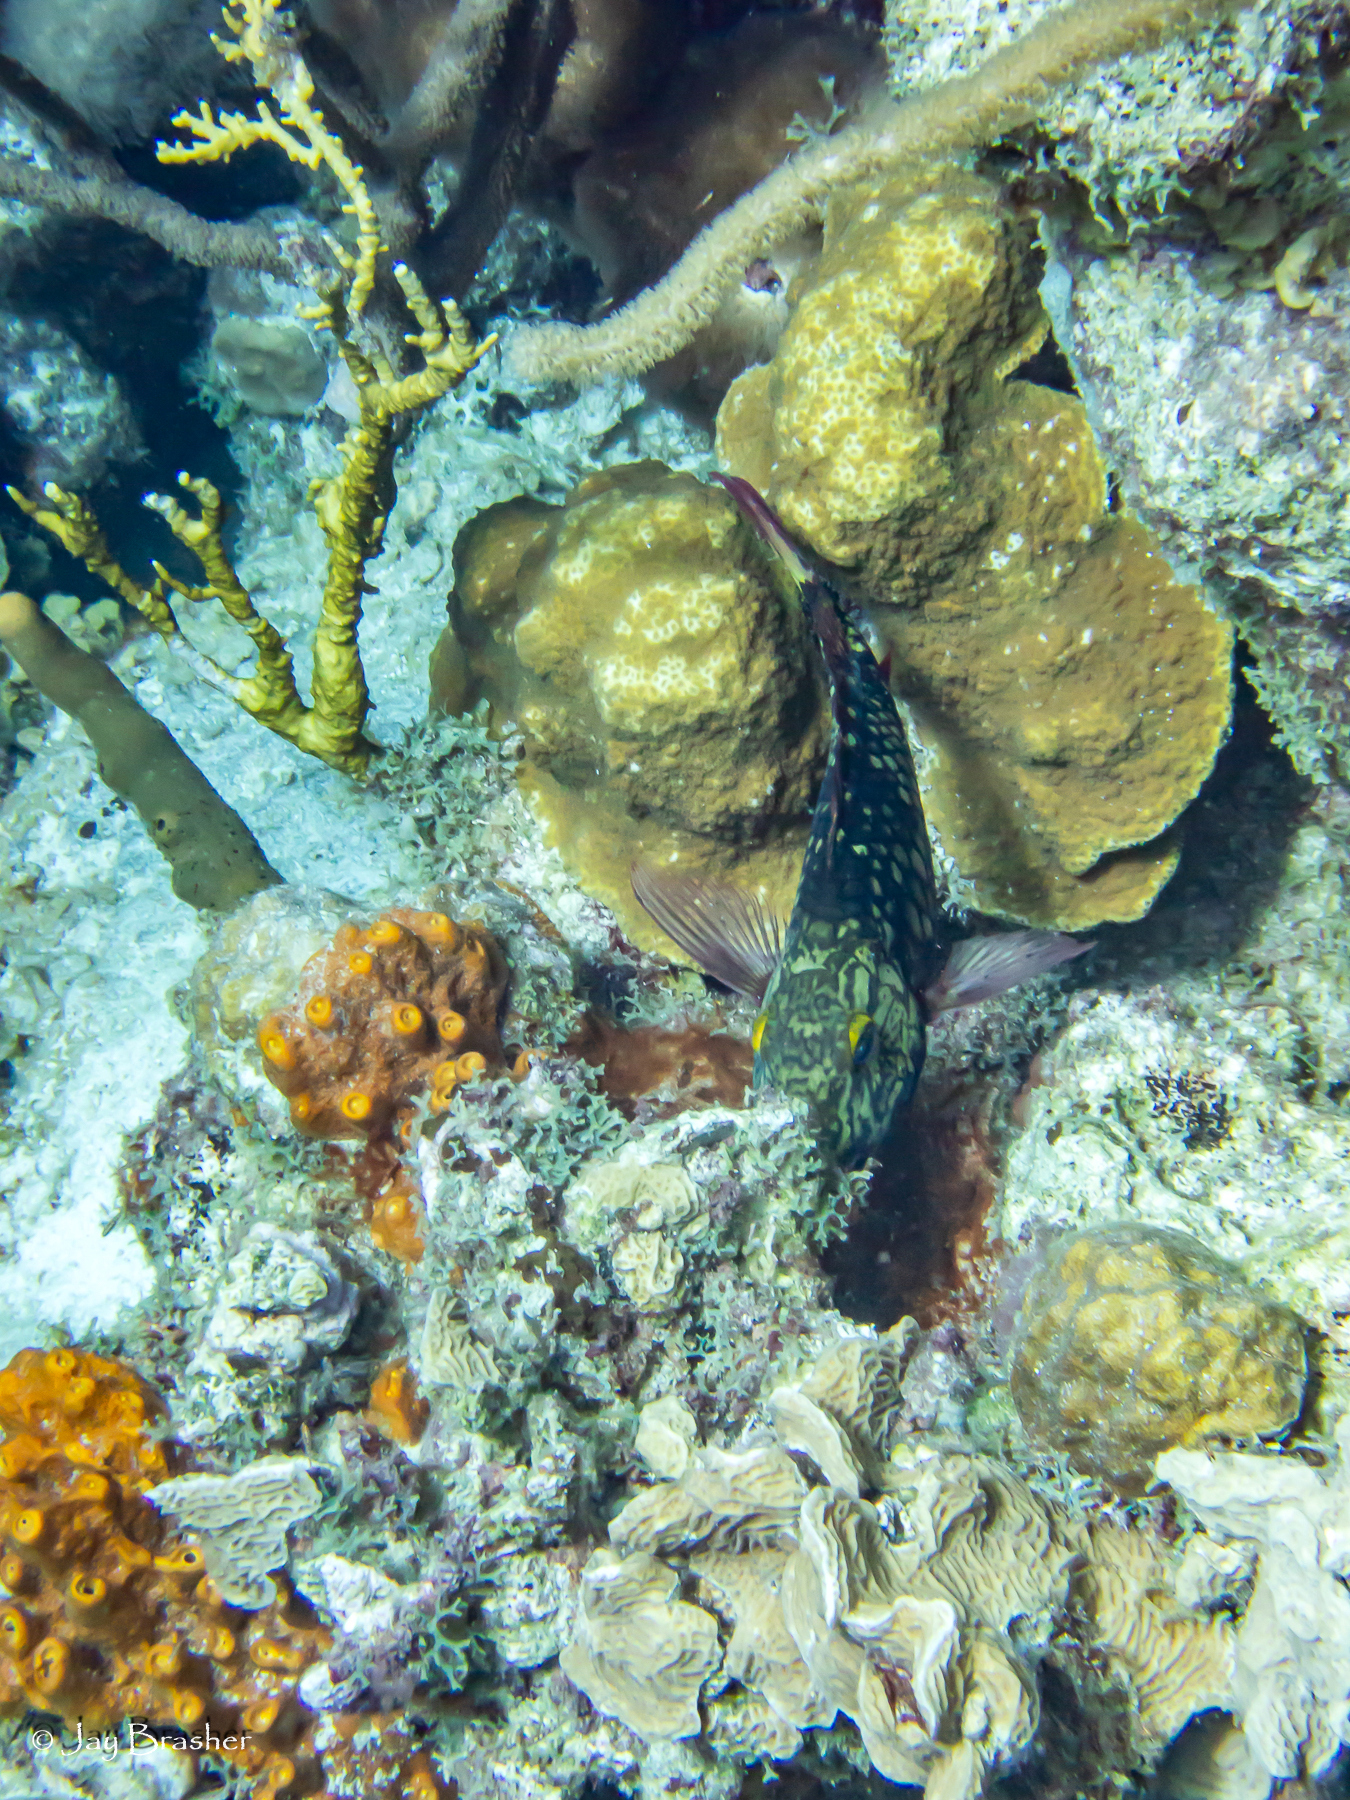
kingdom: Animalia
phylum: Chordata
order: Perciformes
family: Scaridae
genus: Sparisoma
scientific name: Sparisoma viride
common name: Stoplight parrotfish
